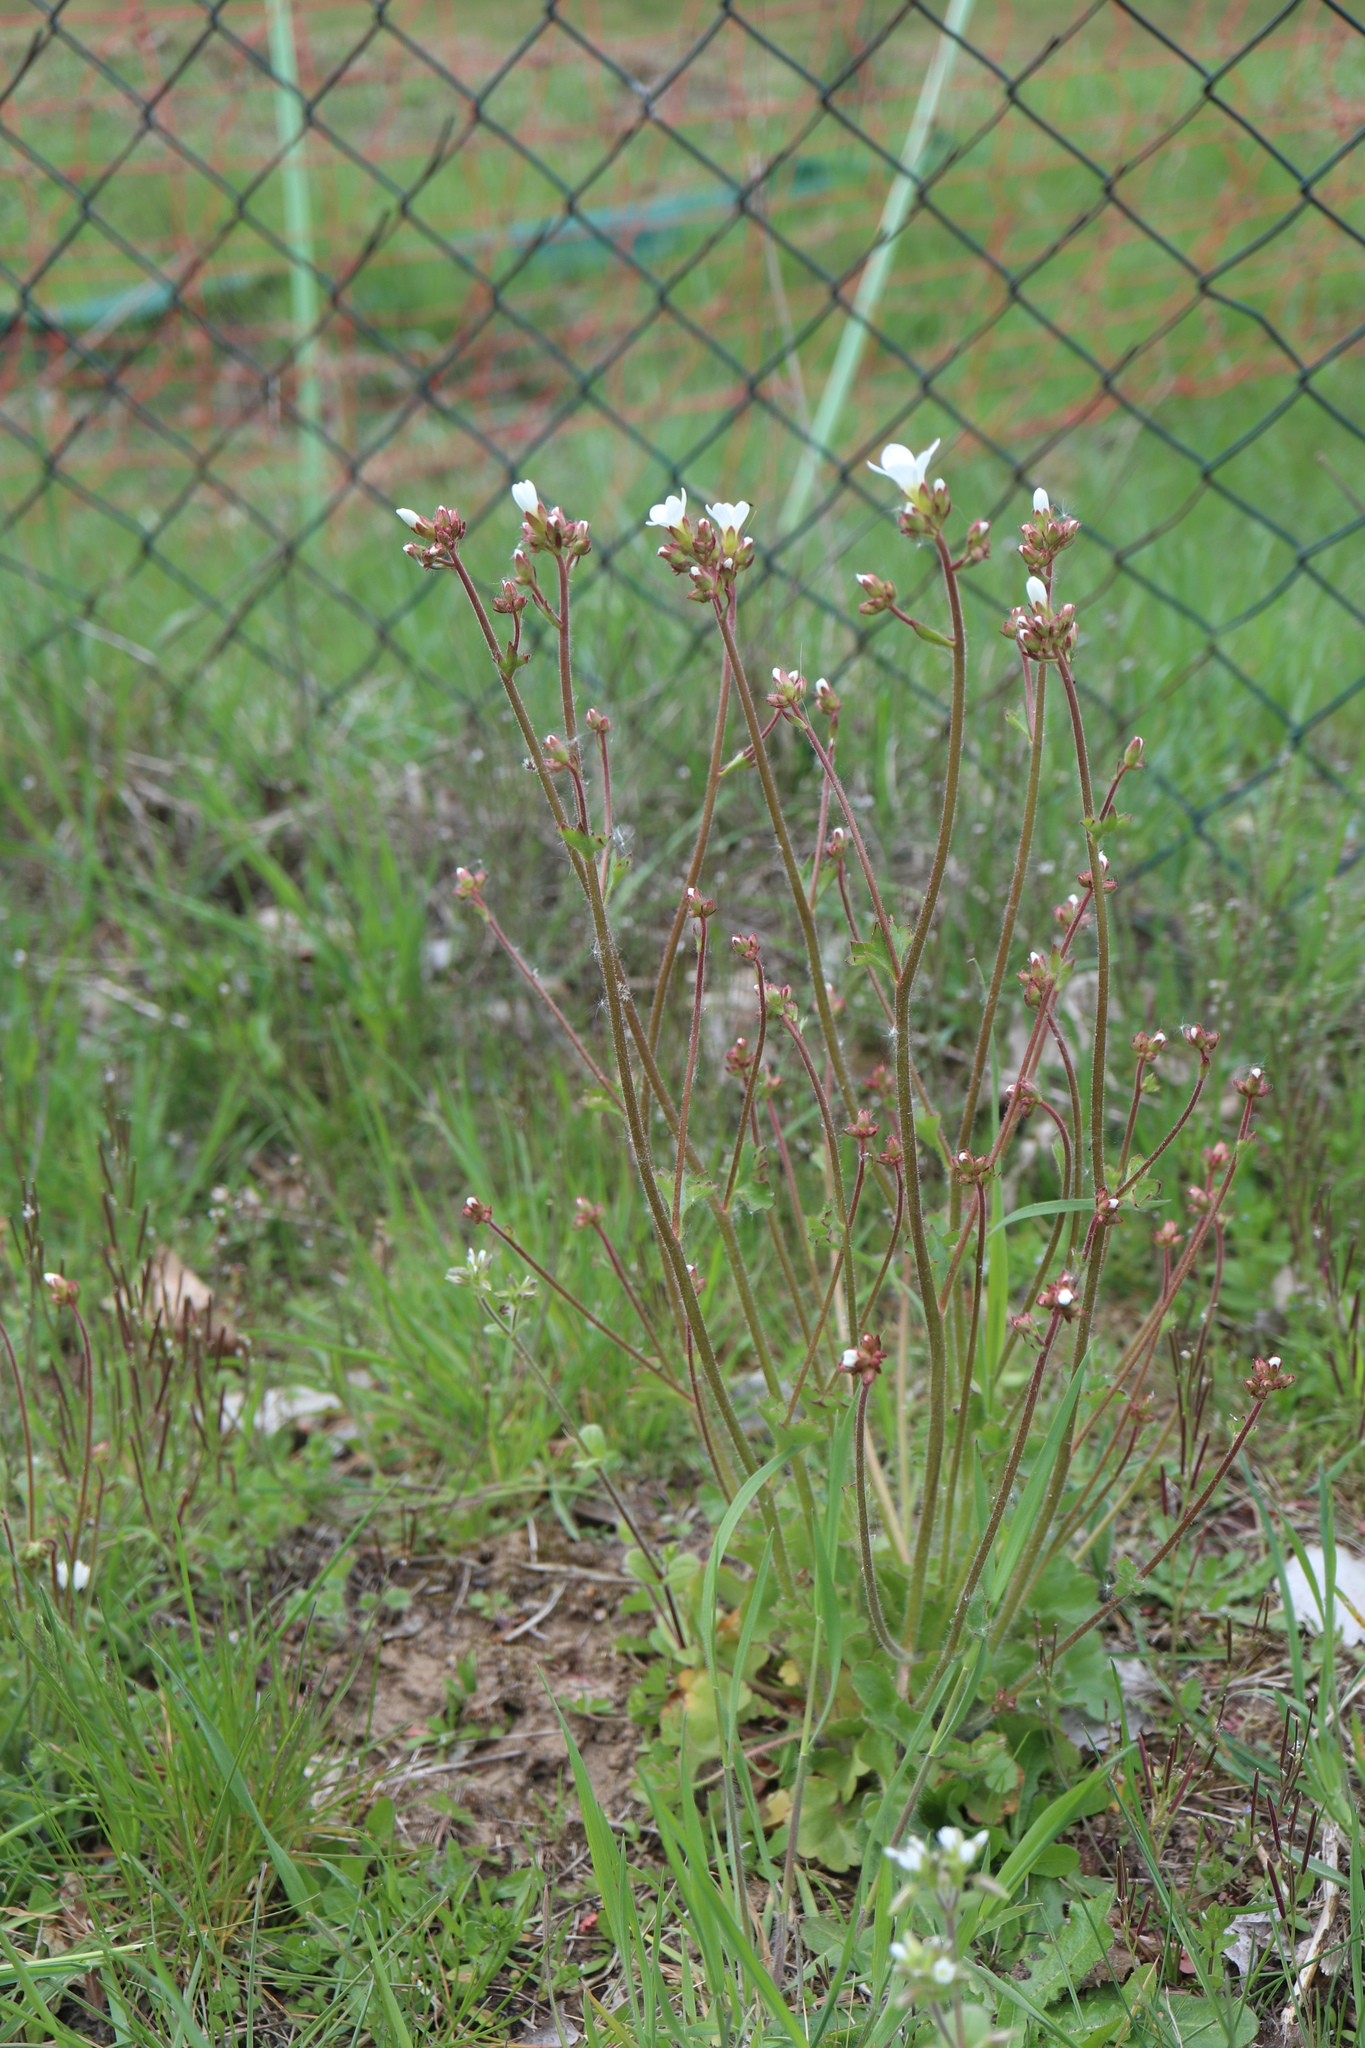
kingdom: Plantae
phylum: Tracheophyta
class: Magnoliopsida
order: Saxifragales
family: Saxifragaceae
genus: Saxifraga
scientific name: Saxifraga granulata
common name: Meadow saxifrage
